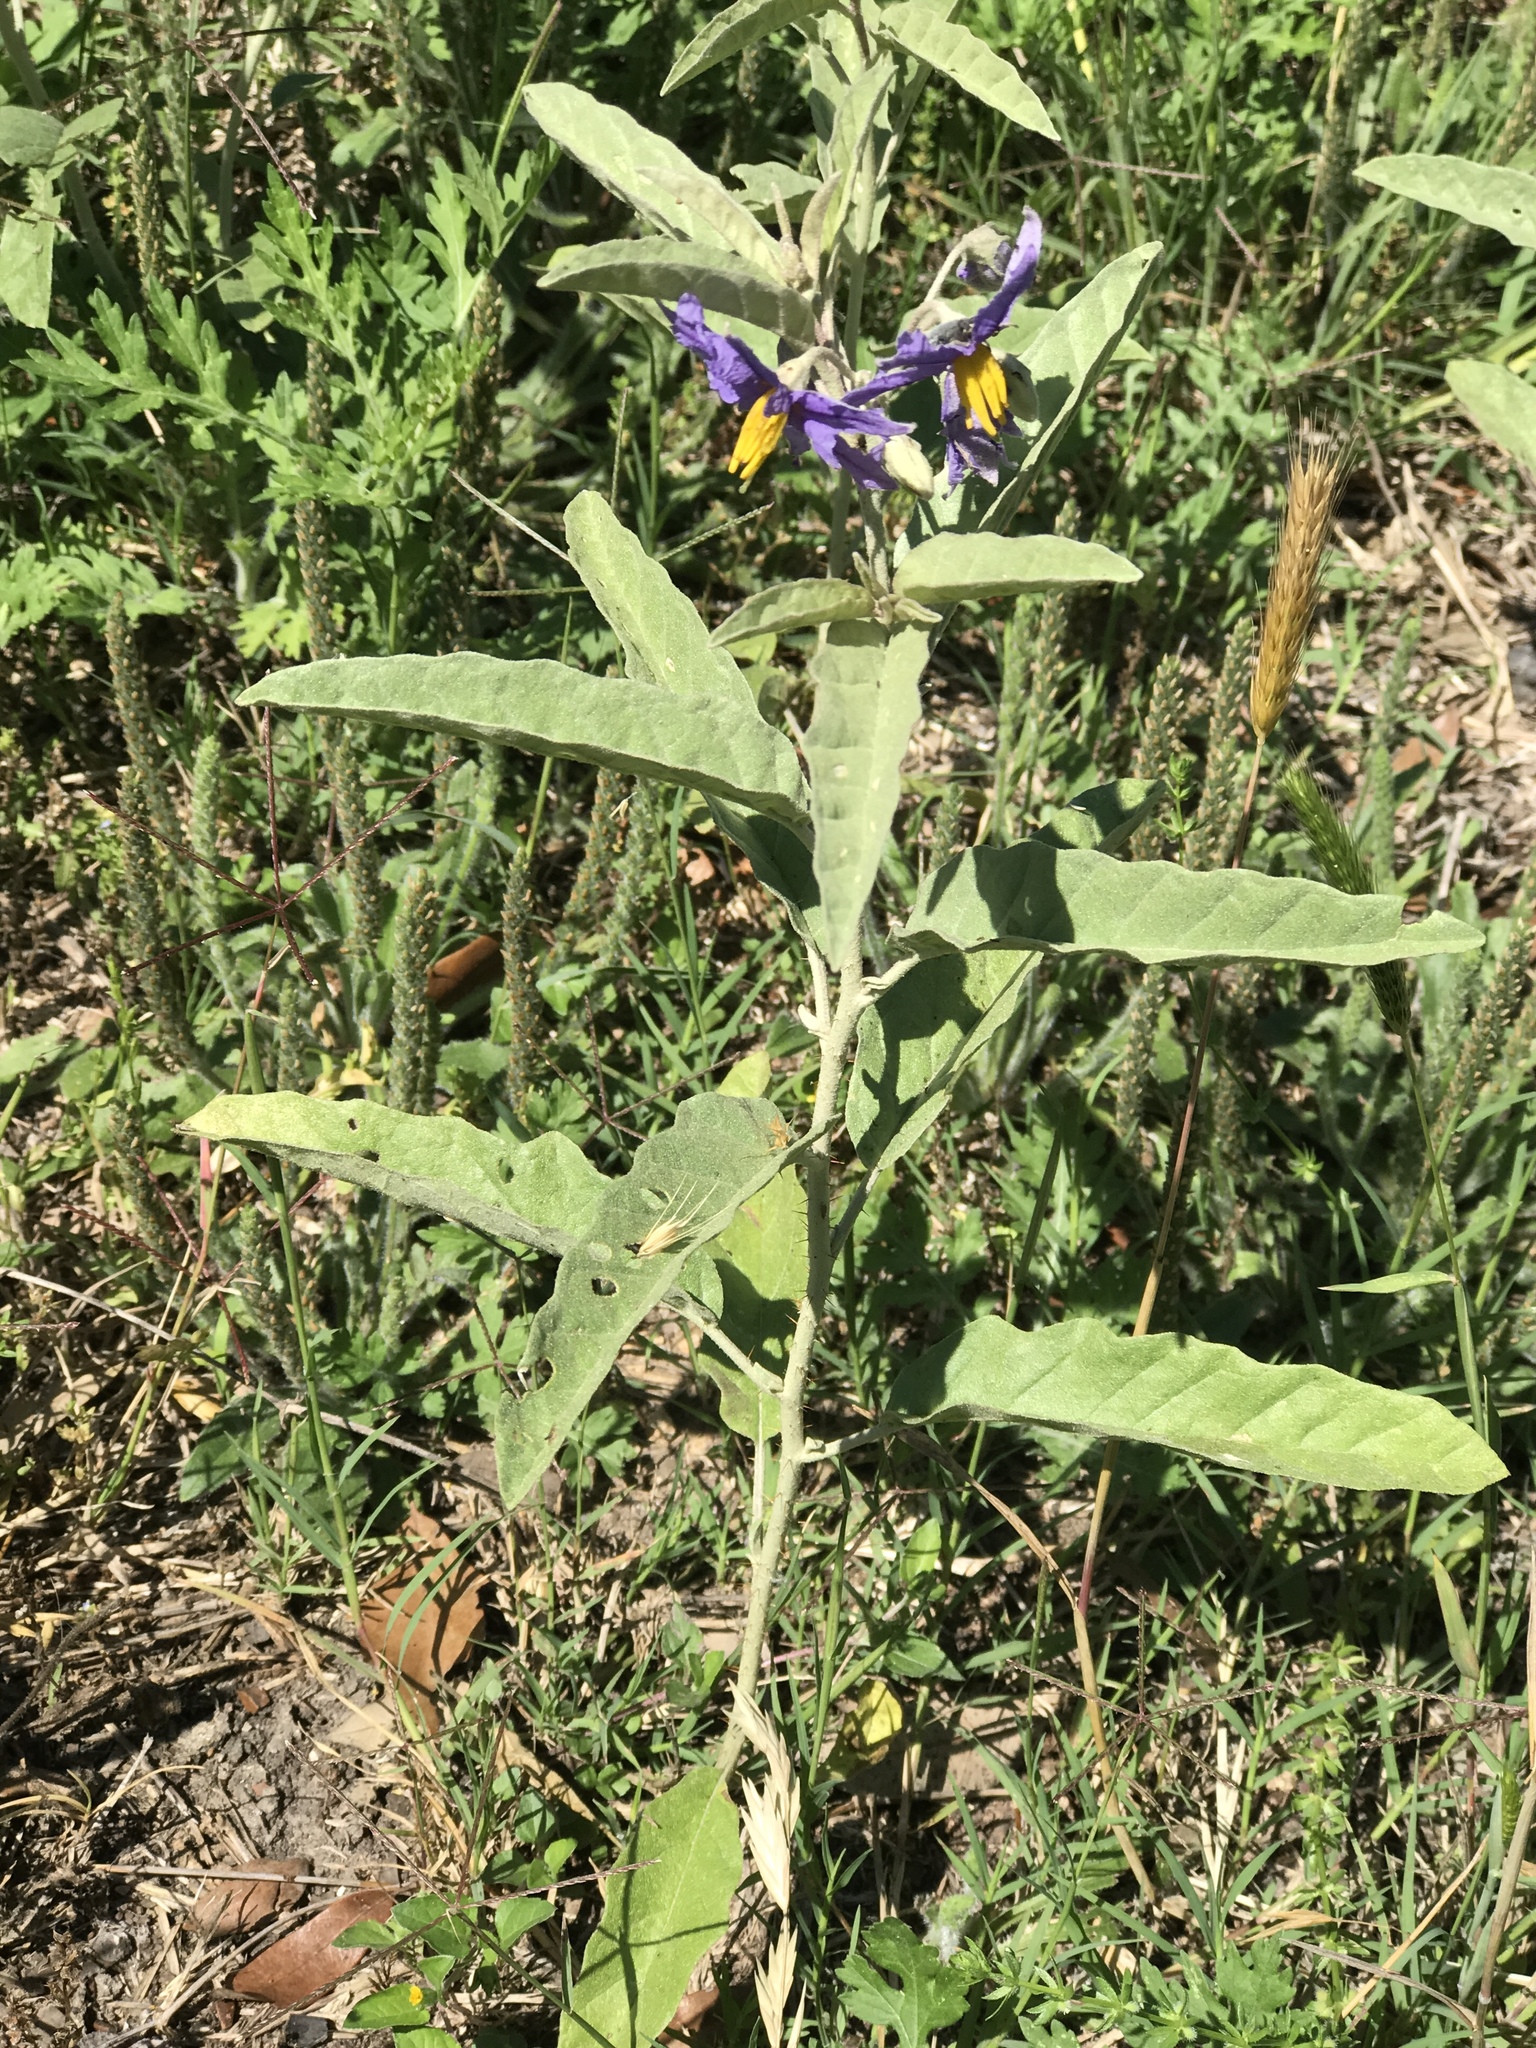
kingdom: Plantae
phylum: Tracheophyta
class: Magnoliopsida
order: Solanales
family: Solanaceae
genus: Solanum
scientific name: Solanum elaeagnifolium
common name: Silverleaf nightshade
